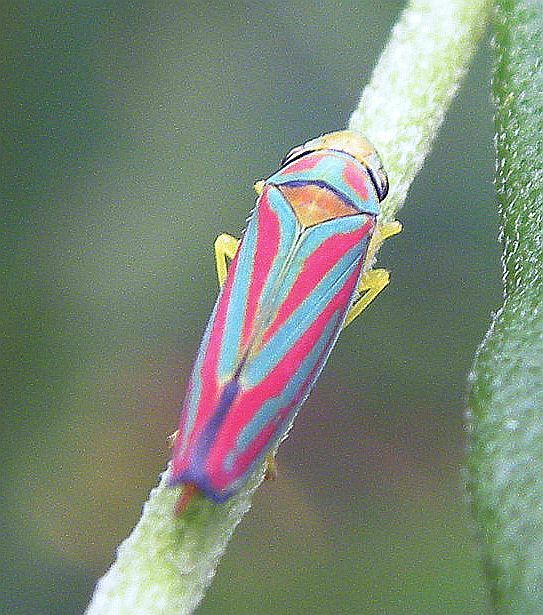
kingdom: Animalia
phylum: Arthropoda
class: Insecta
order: Hemiptera
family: Cicadellidae
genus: Graphocephala
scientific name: Graphocephala coccinea
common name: Candy-striped leafhopper
